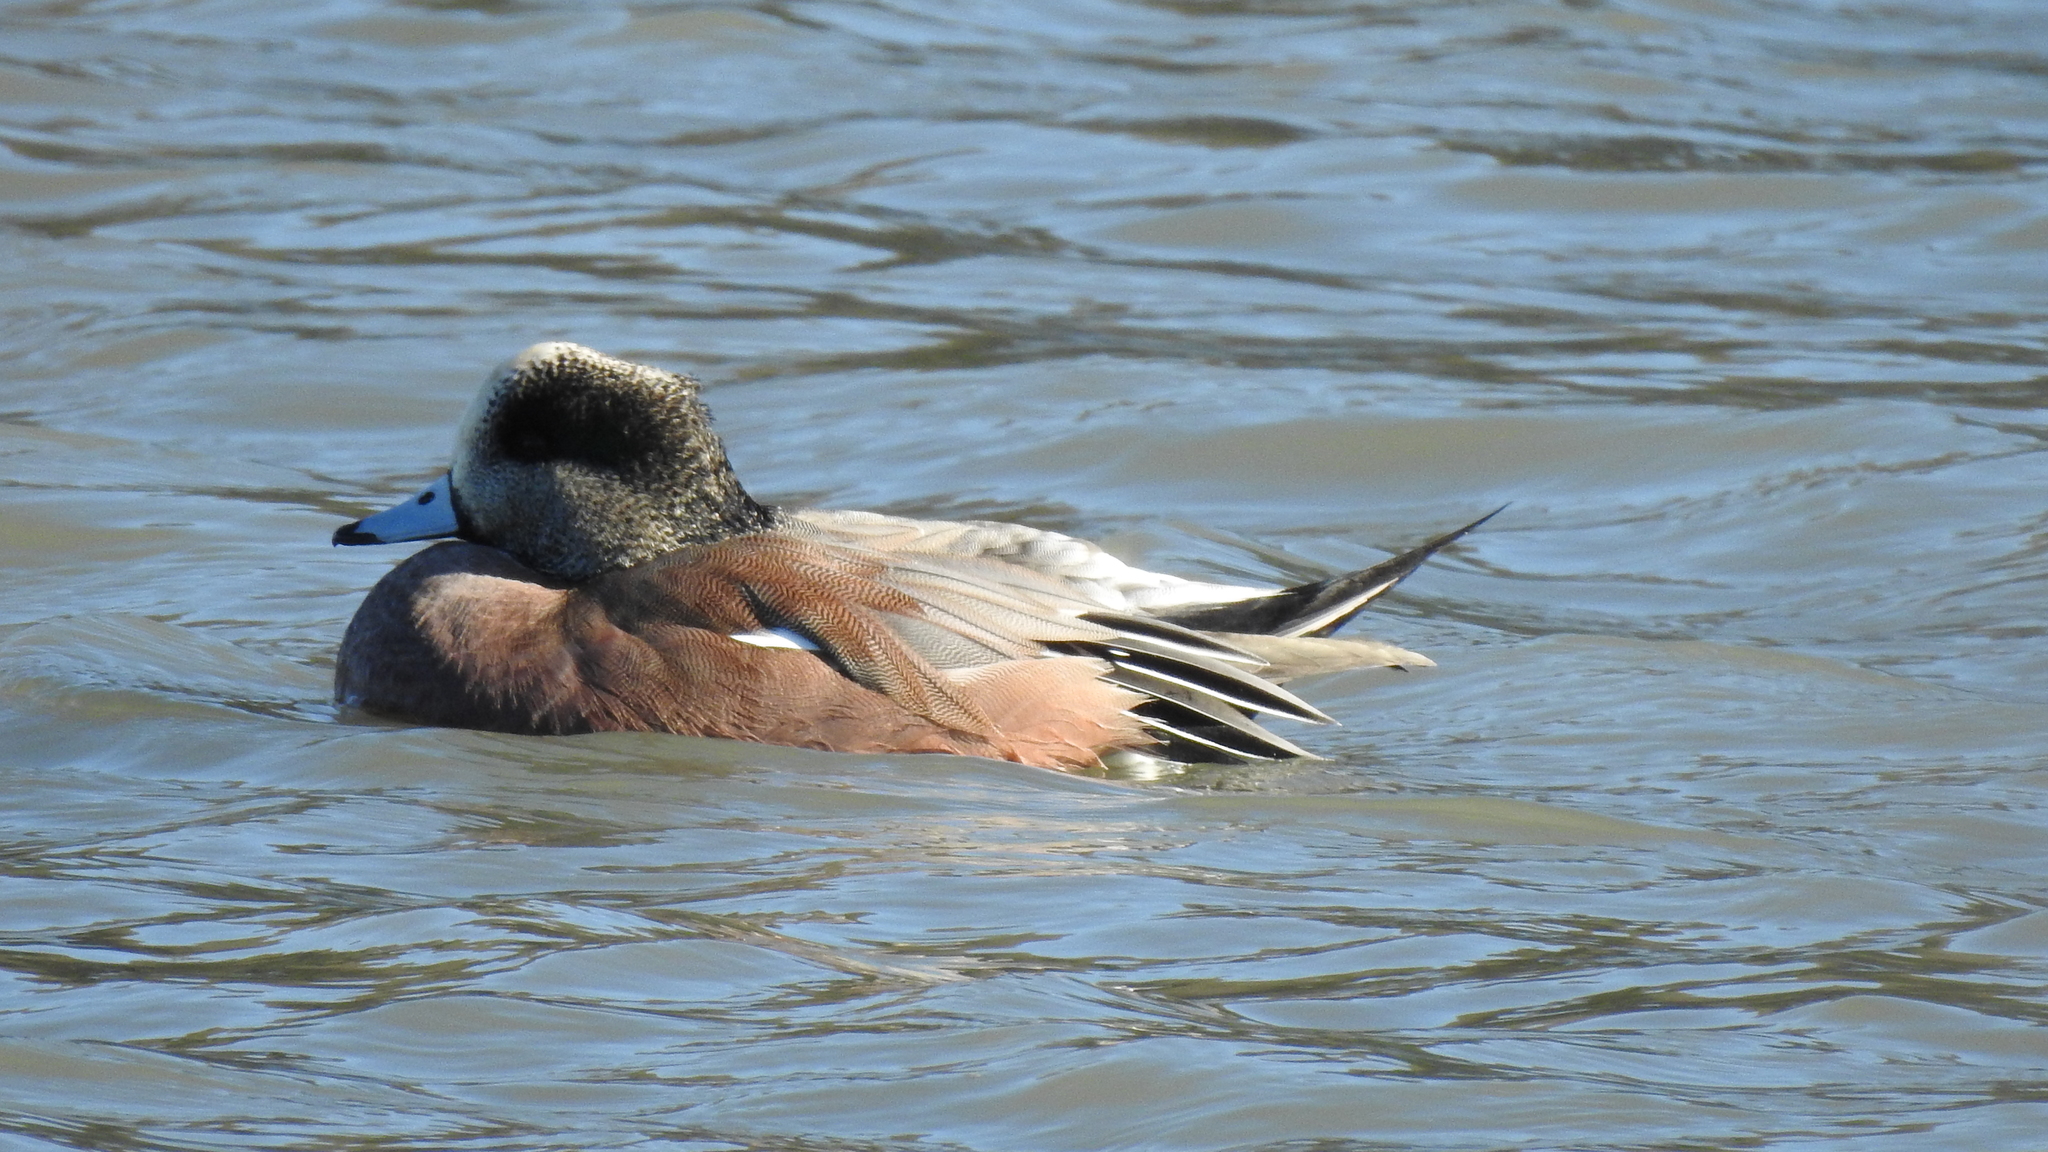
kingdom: Animalia
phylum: Chordata
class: Aves
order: Anseriformes
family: Anatidae
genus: Mareca
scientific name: Mareca americana
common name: American wigeon
